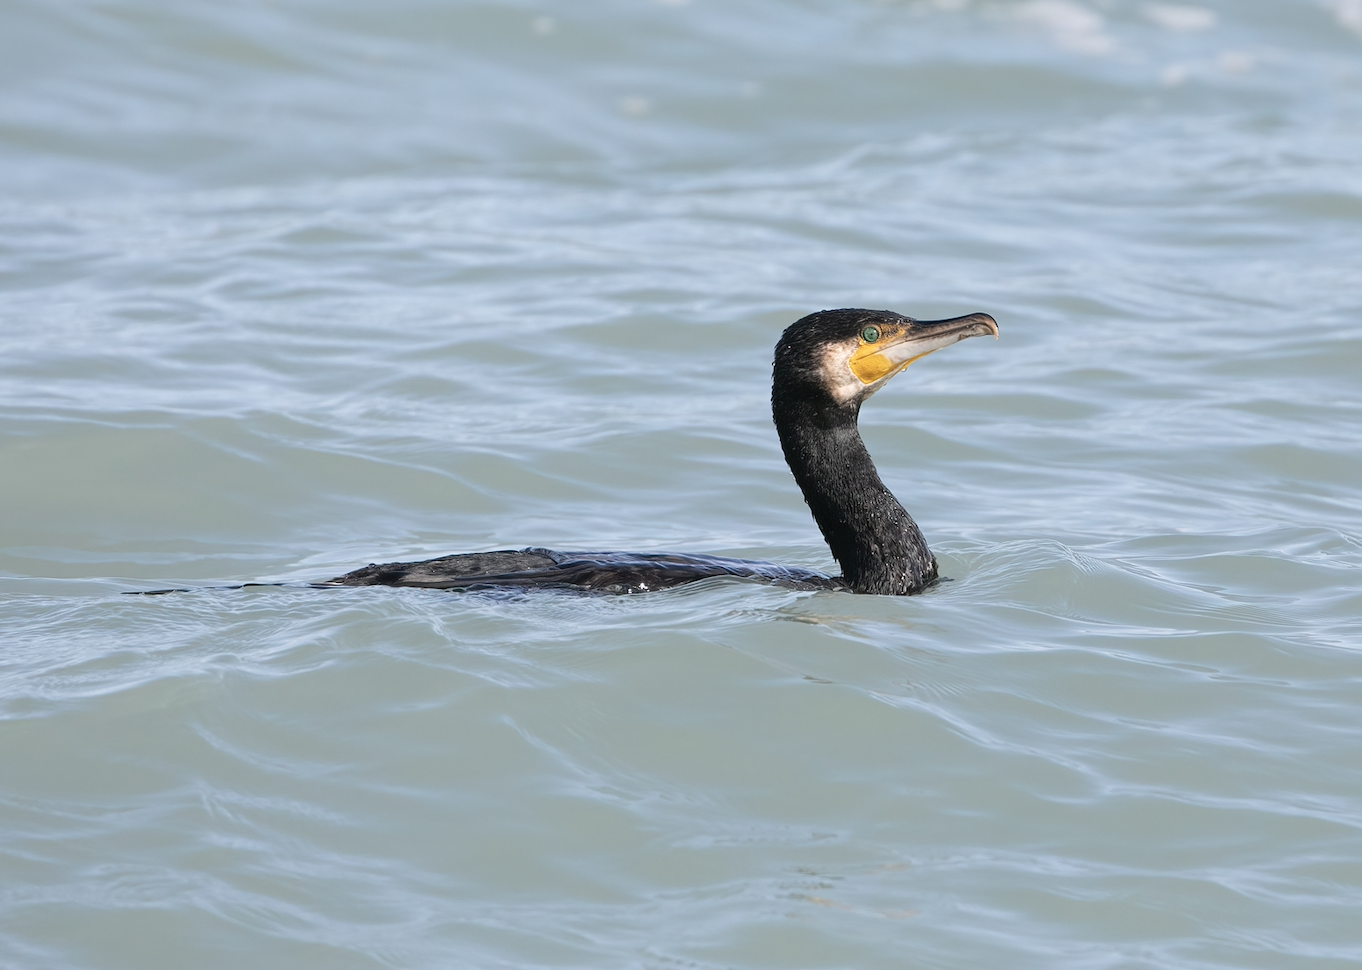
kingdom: Animalia
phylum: Chordata
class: Aves
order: Suliformes
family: Phalacrocoracidae
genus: Phalacrocorax
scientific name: Phalacrocorax carbo
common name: Great cormorant
